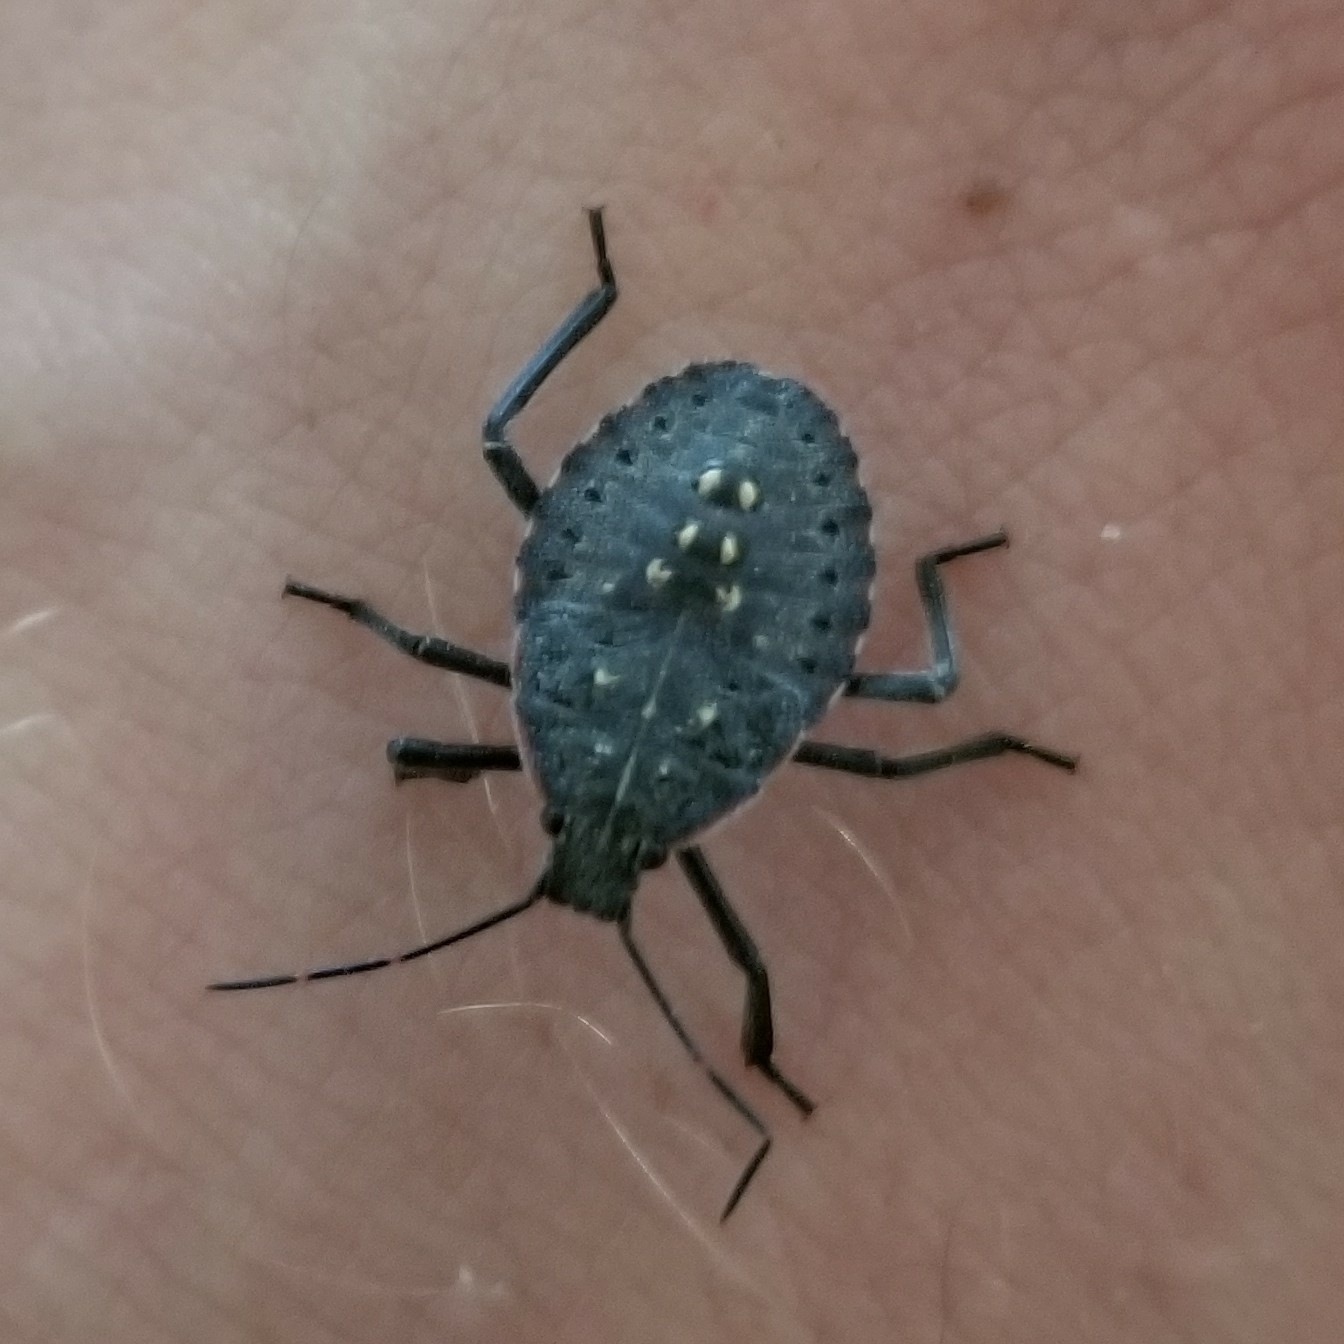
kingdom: Animalia
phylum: Arthropoda
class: Insecta
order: Hemiptera
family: Pentatomidae
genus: Apodiphus
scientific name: Apodiphus amygdali
